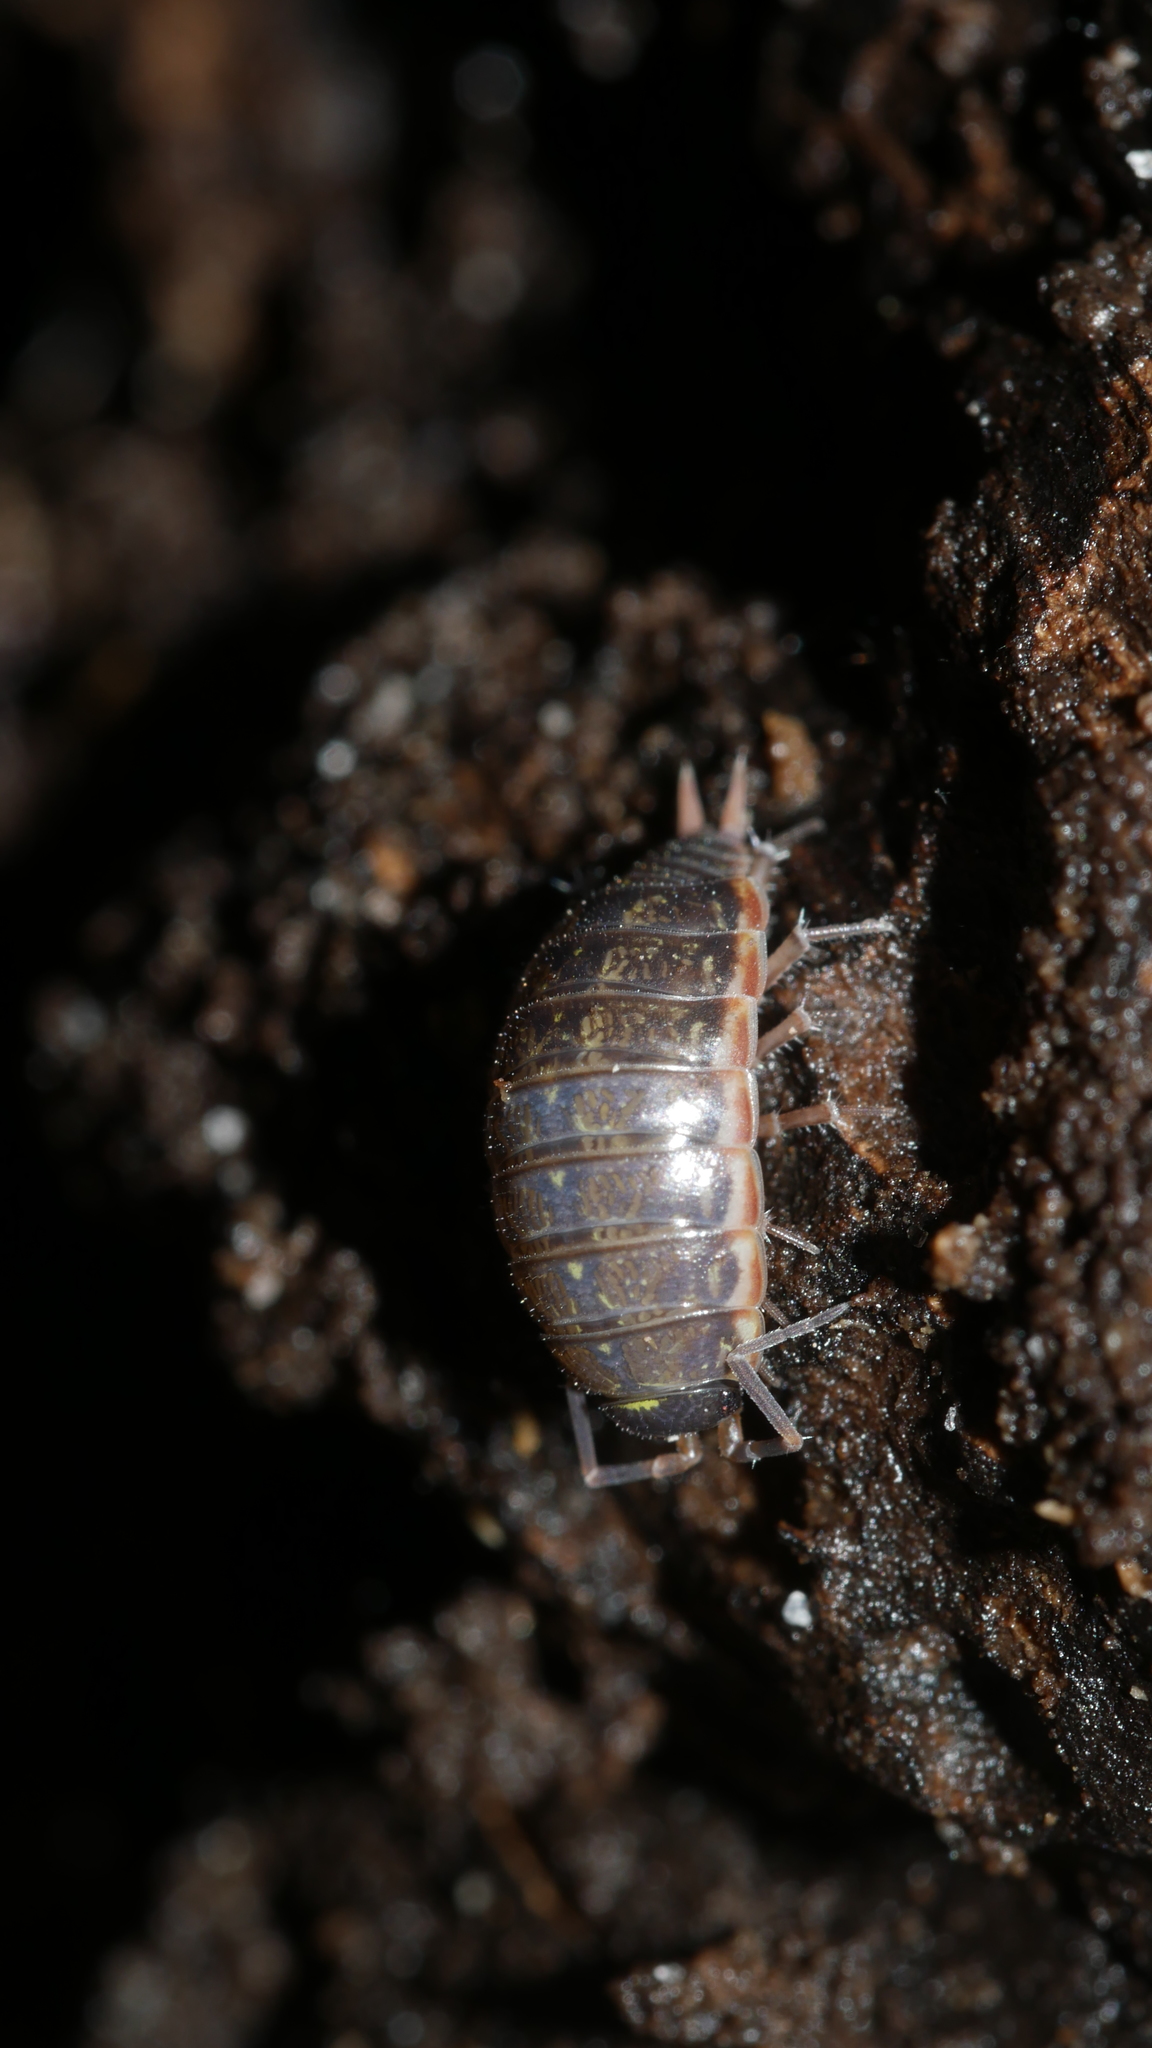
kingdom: Animalia
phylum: Arthropoda
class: Malacostraca
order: Isopoda
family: Philosciidae
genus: Philoscia
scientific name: Philoscia muscorum
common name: Common striped woodlouse
